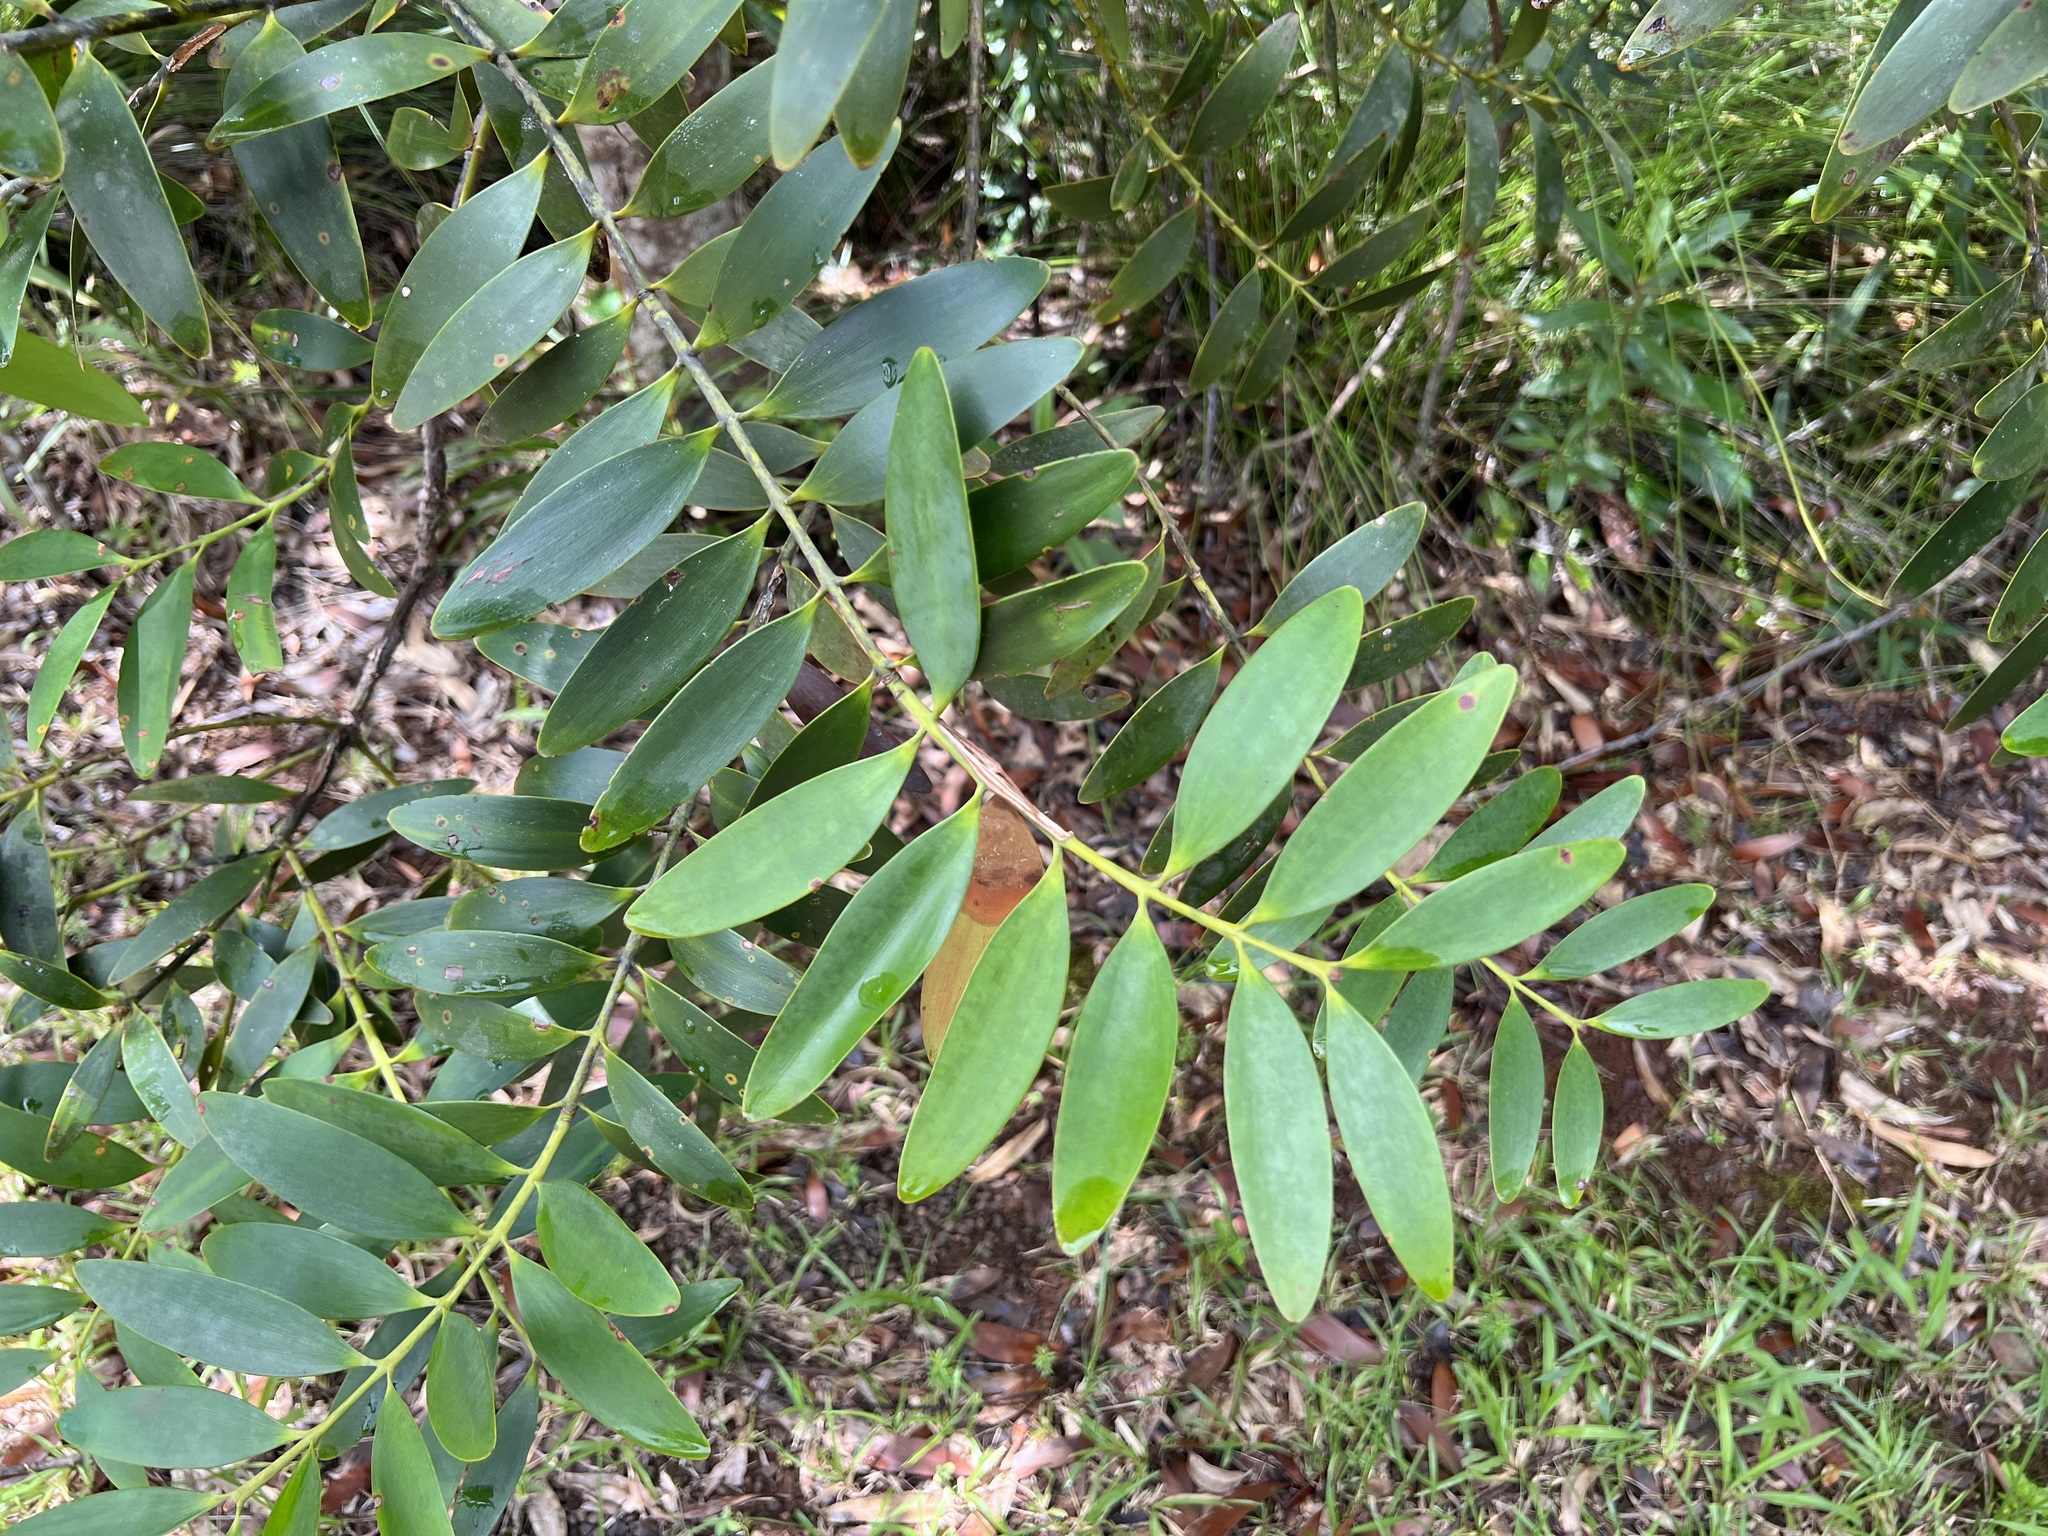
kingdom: Plantae
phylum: Tracheophyta
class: Pinopsida
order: Pinales
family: Araucariaceae
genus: Agathis
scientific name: Agathis lanceolata
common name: Koghis kauri
